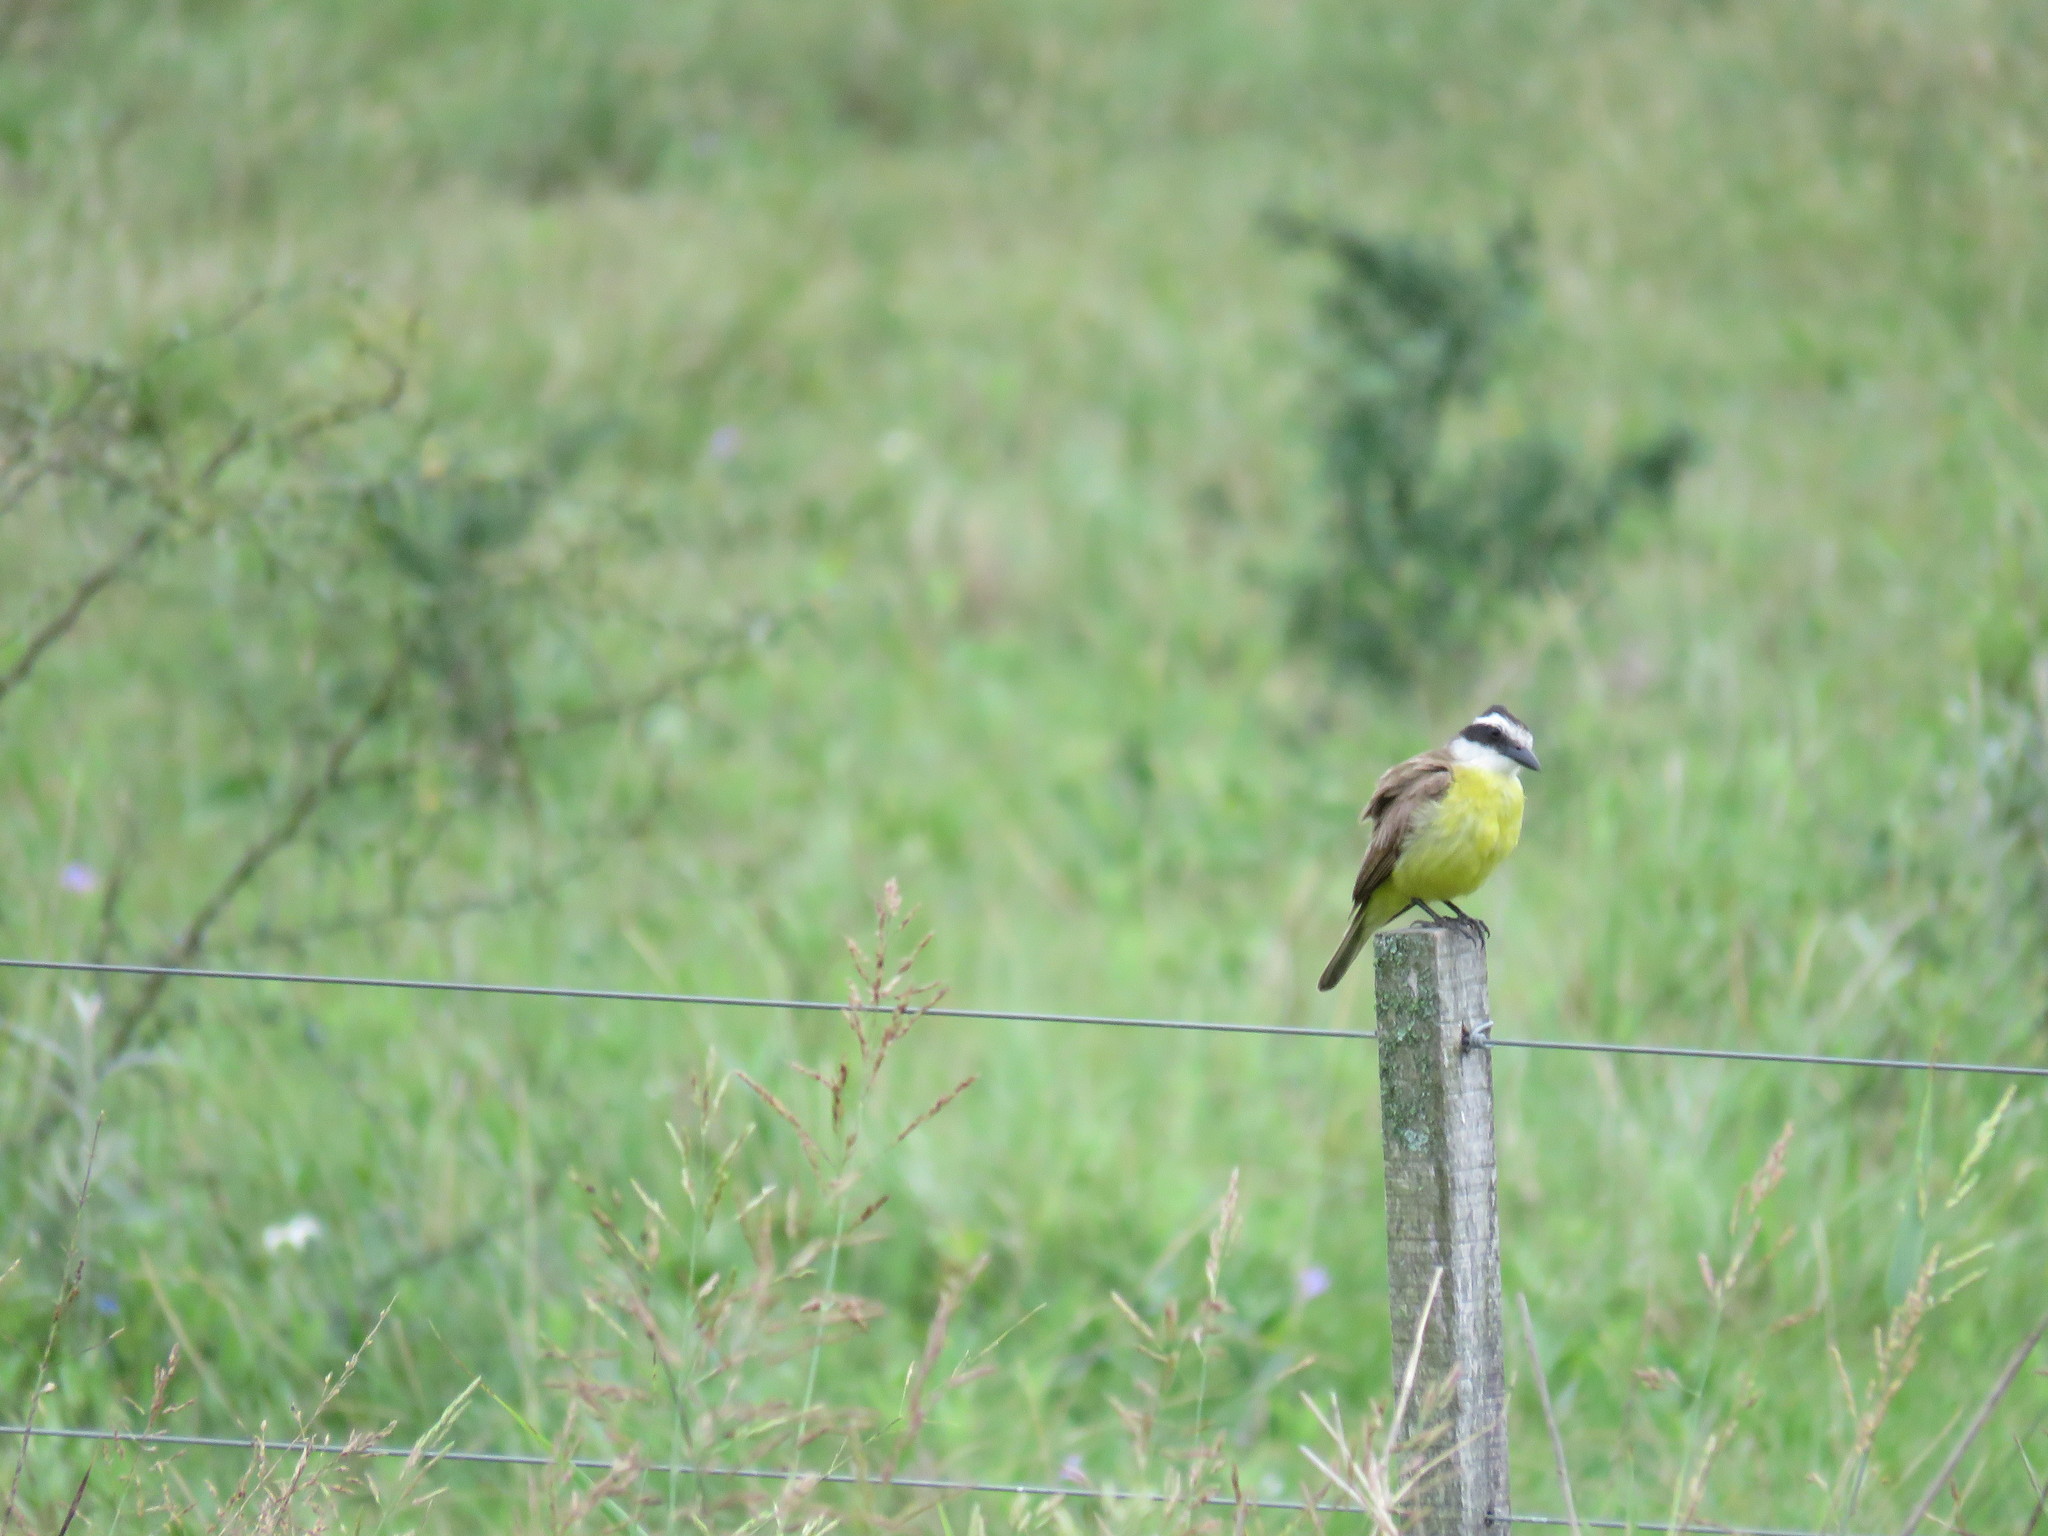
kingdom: Animalia
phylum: Chordata
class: Aves
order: Passeriformes
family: Tyrannidae
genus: Pitangus
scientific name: Pitangus sulphuratus
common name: Great kiskadee
